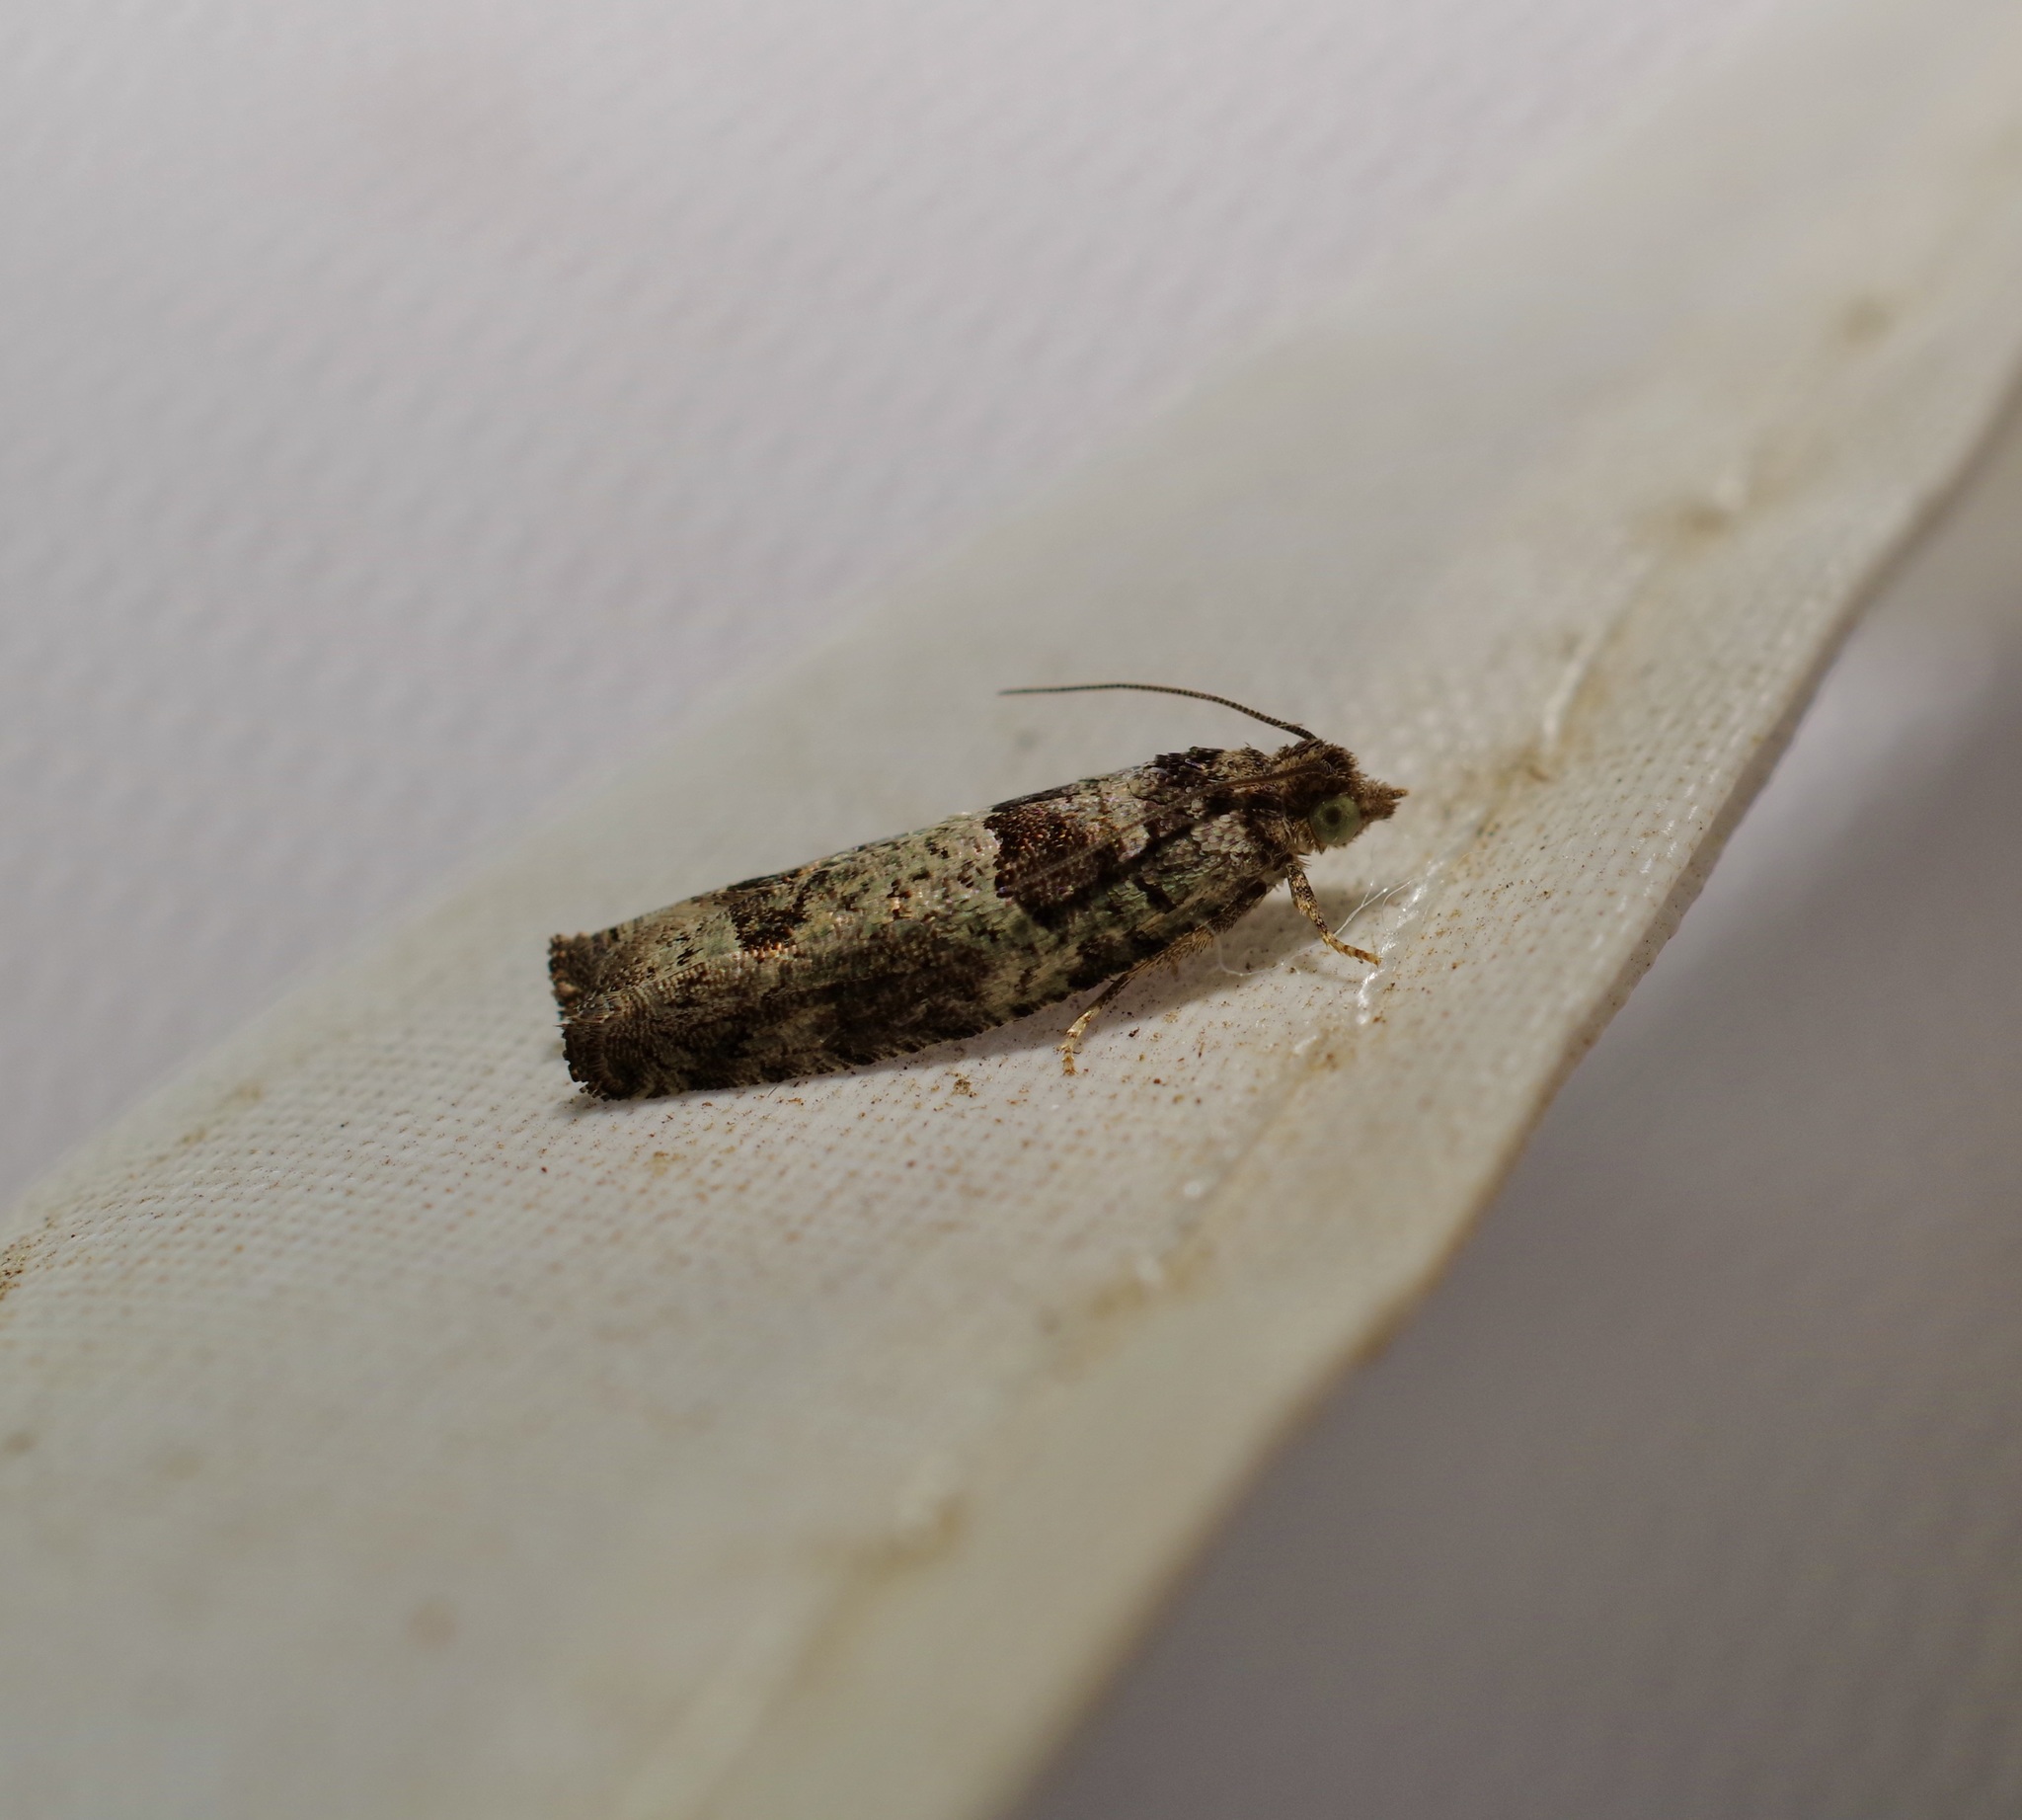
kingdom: Animalia
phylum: Arthropoda
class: Insecta
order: Lepidoptera
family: Tortricidae
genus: Pseudexentera
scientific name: Pseudexentera knudsoni
